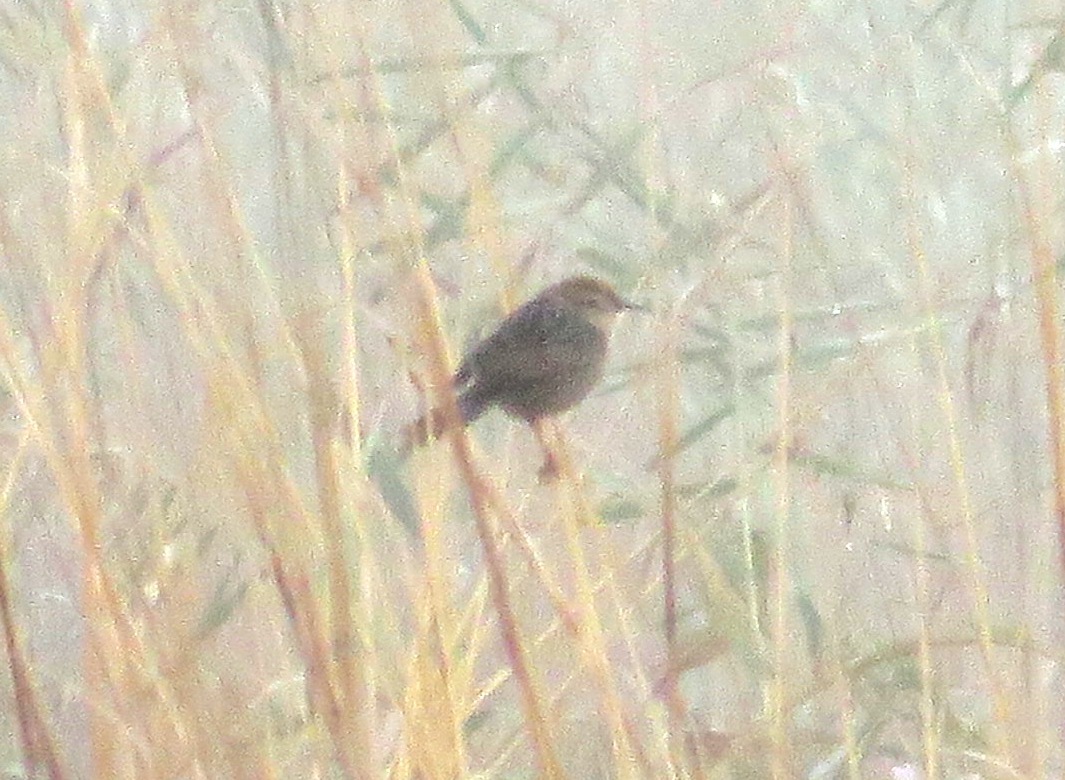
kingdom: Animalia
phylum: Chordata
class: Aves
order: Passeriformes
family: Cisticolidae
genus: Cisticola
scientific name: Cisticola tinniens
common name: Levaillant's cisticola
